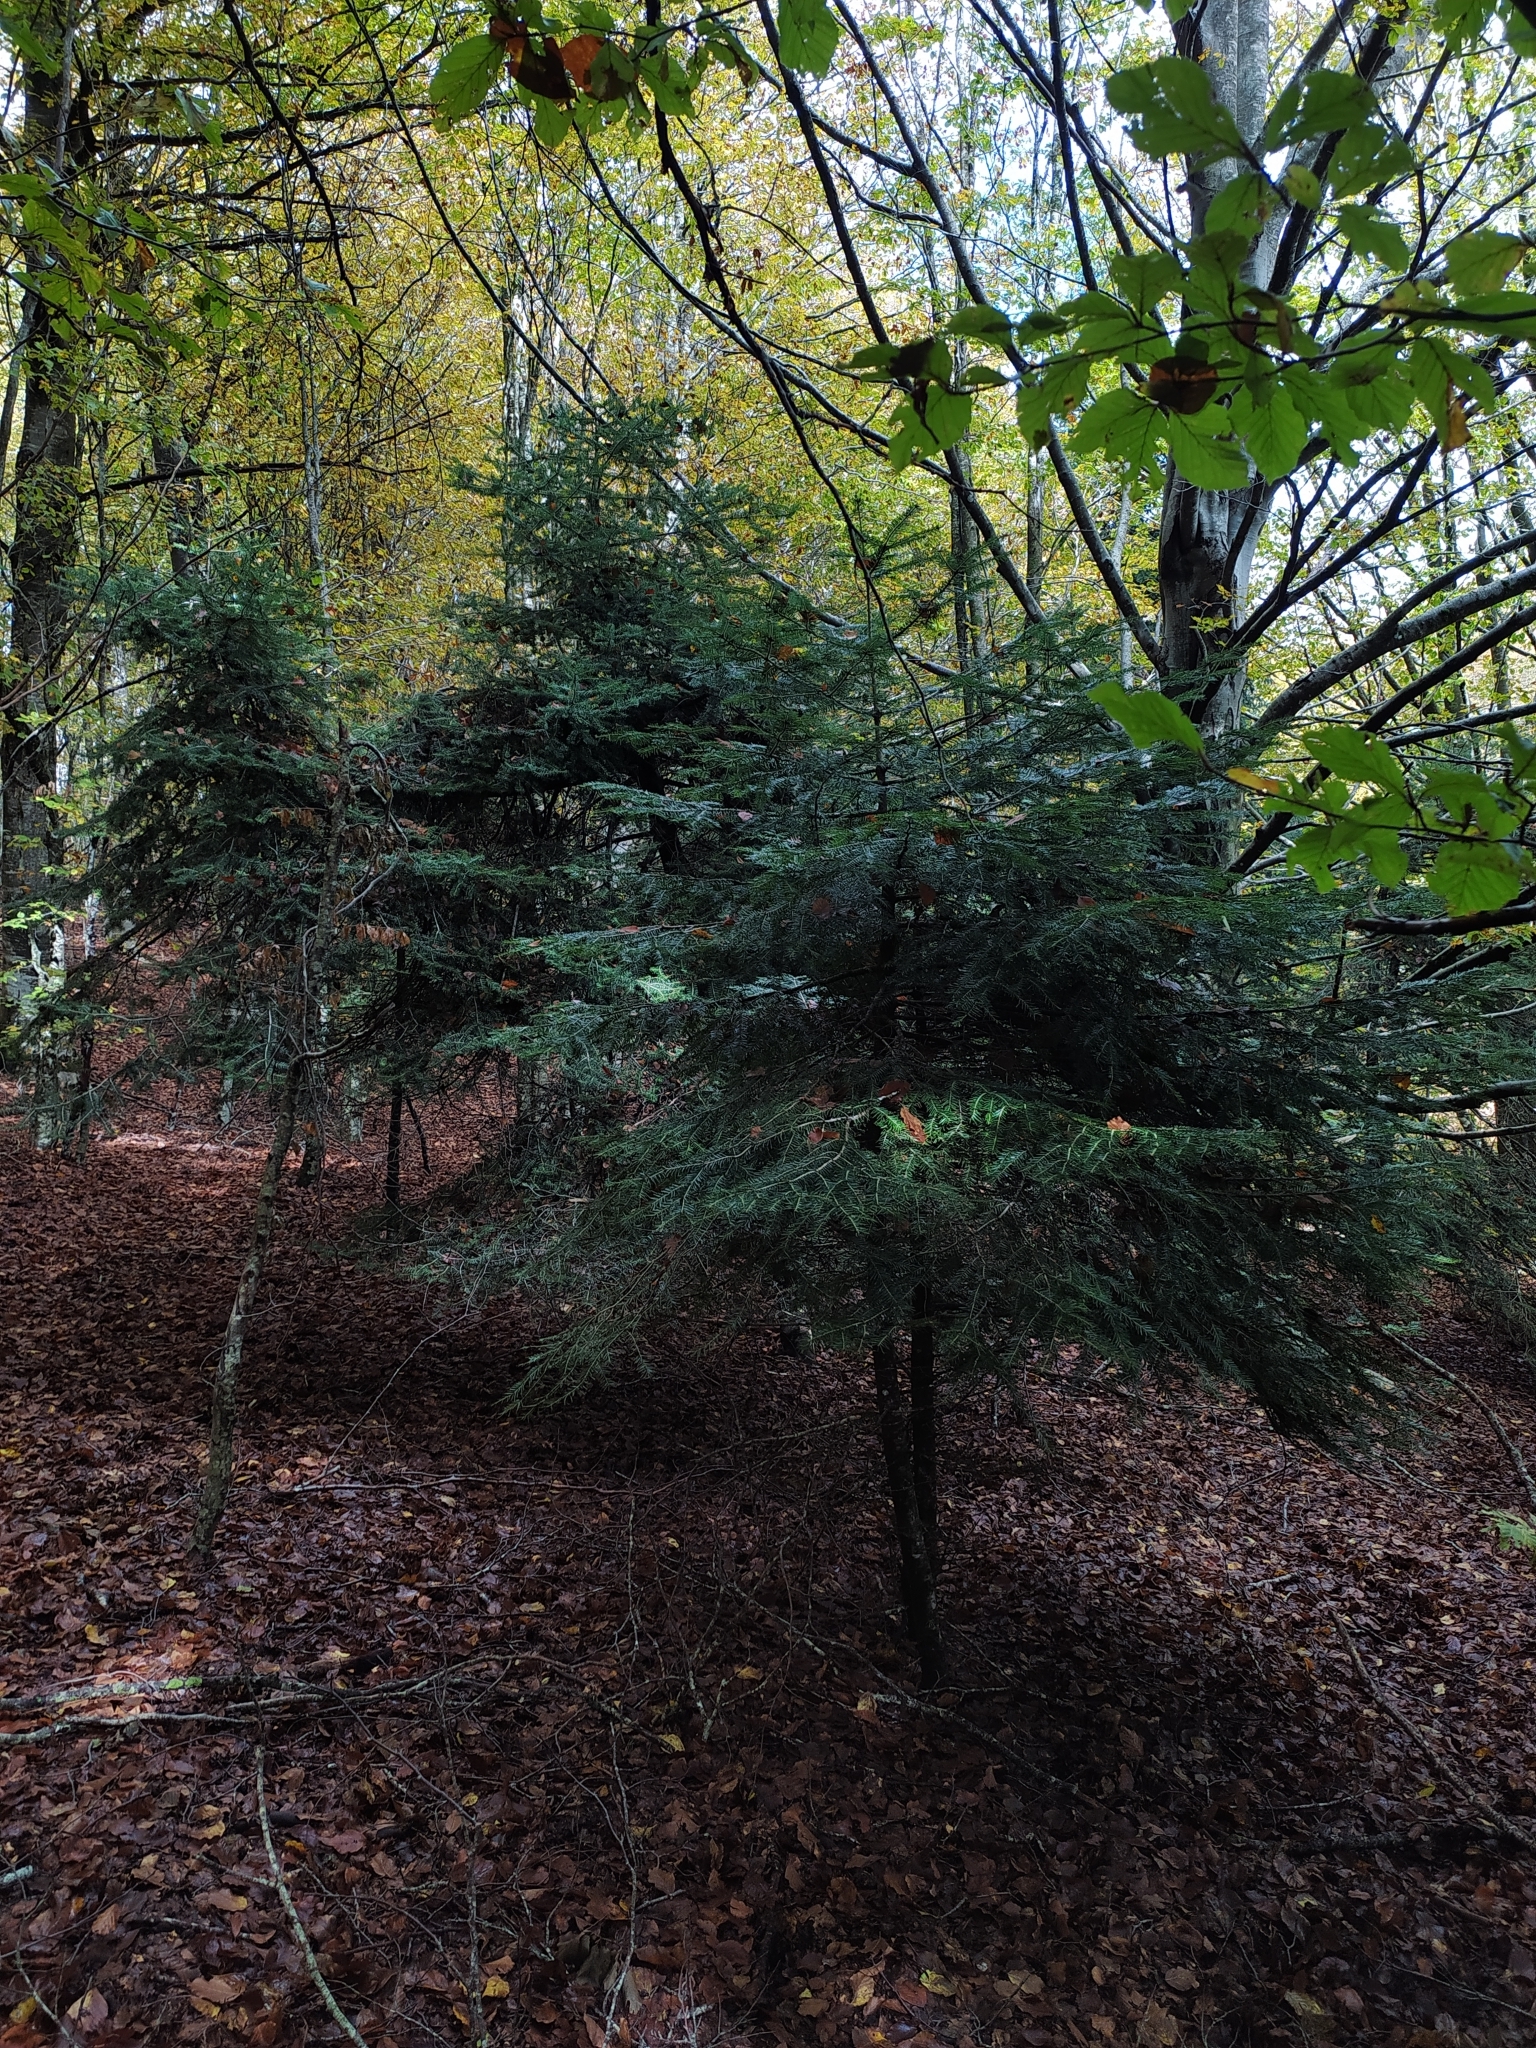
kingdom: Plantae
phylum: Tracheophyta
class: Pinopsida
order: Pinales
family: Pinaceae
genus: Abies
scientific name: Abies alba
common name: Silver fir
